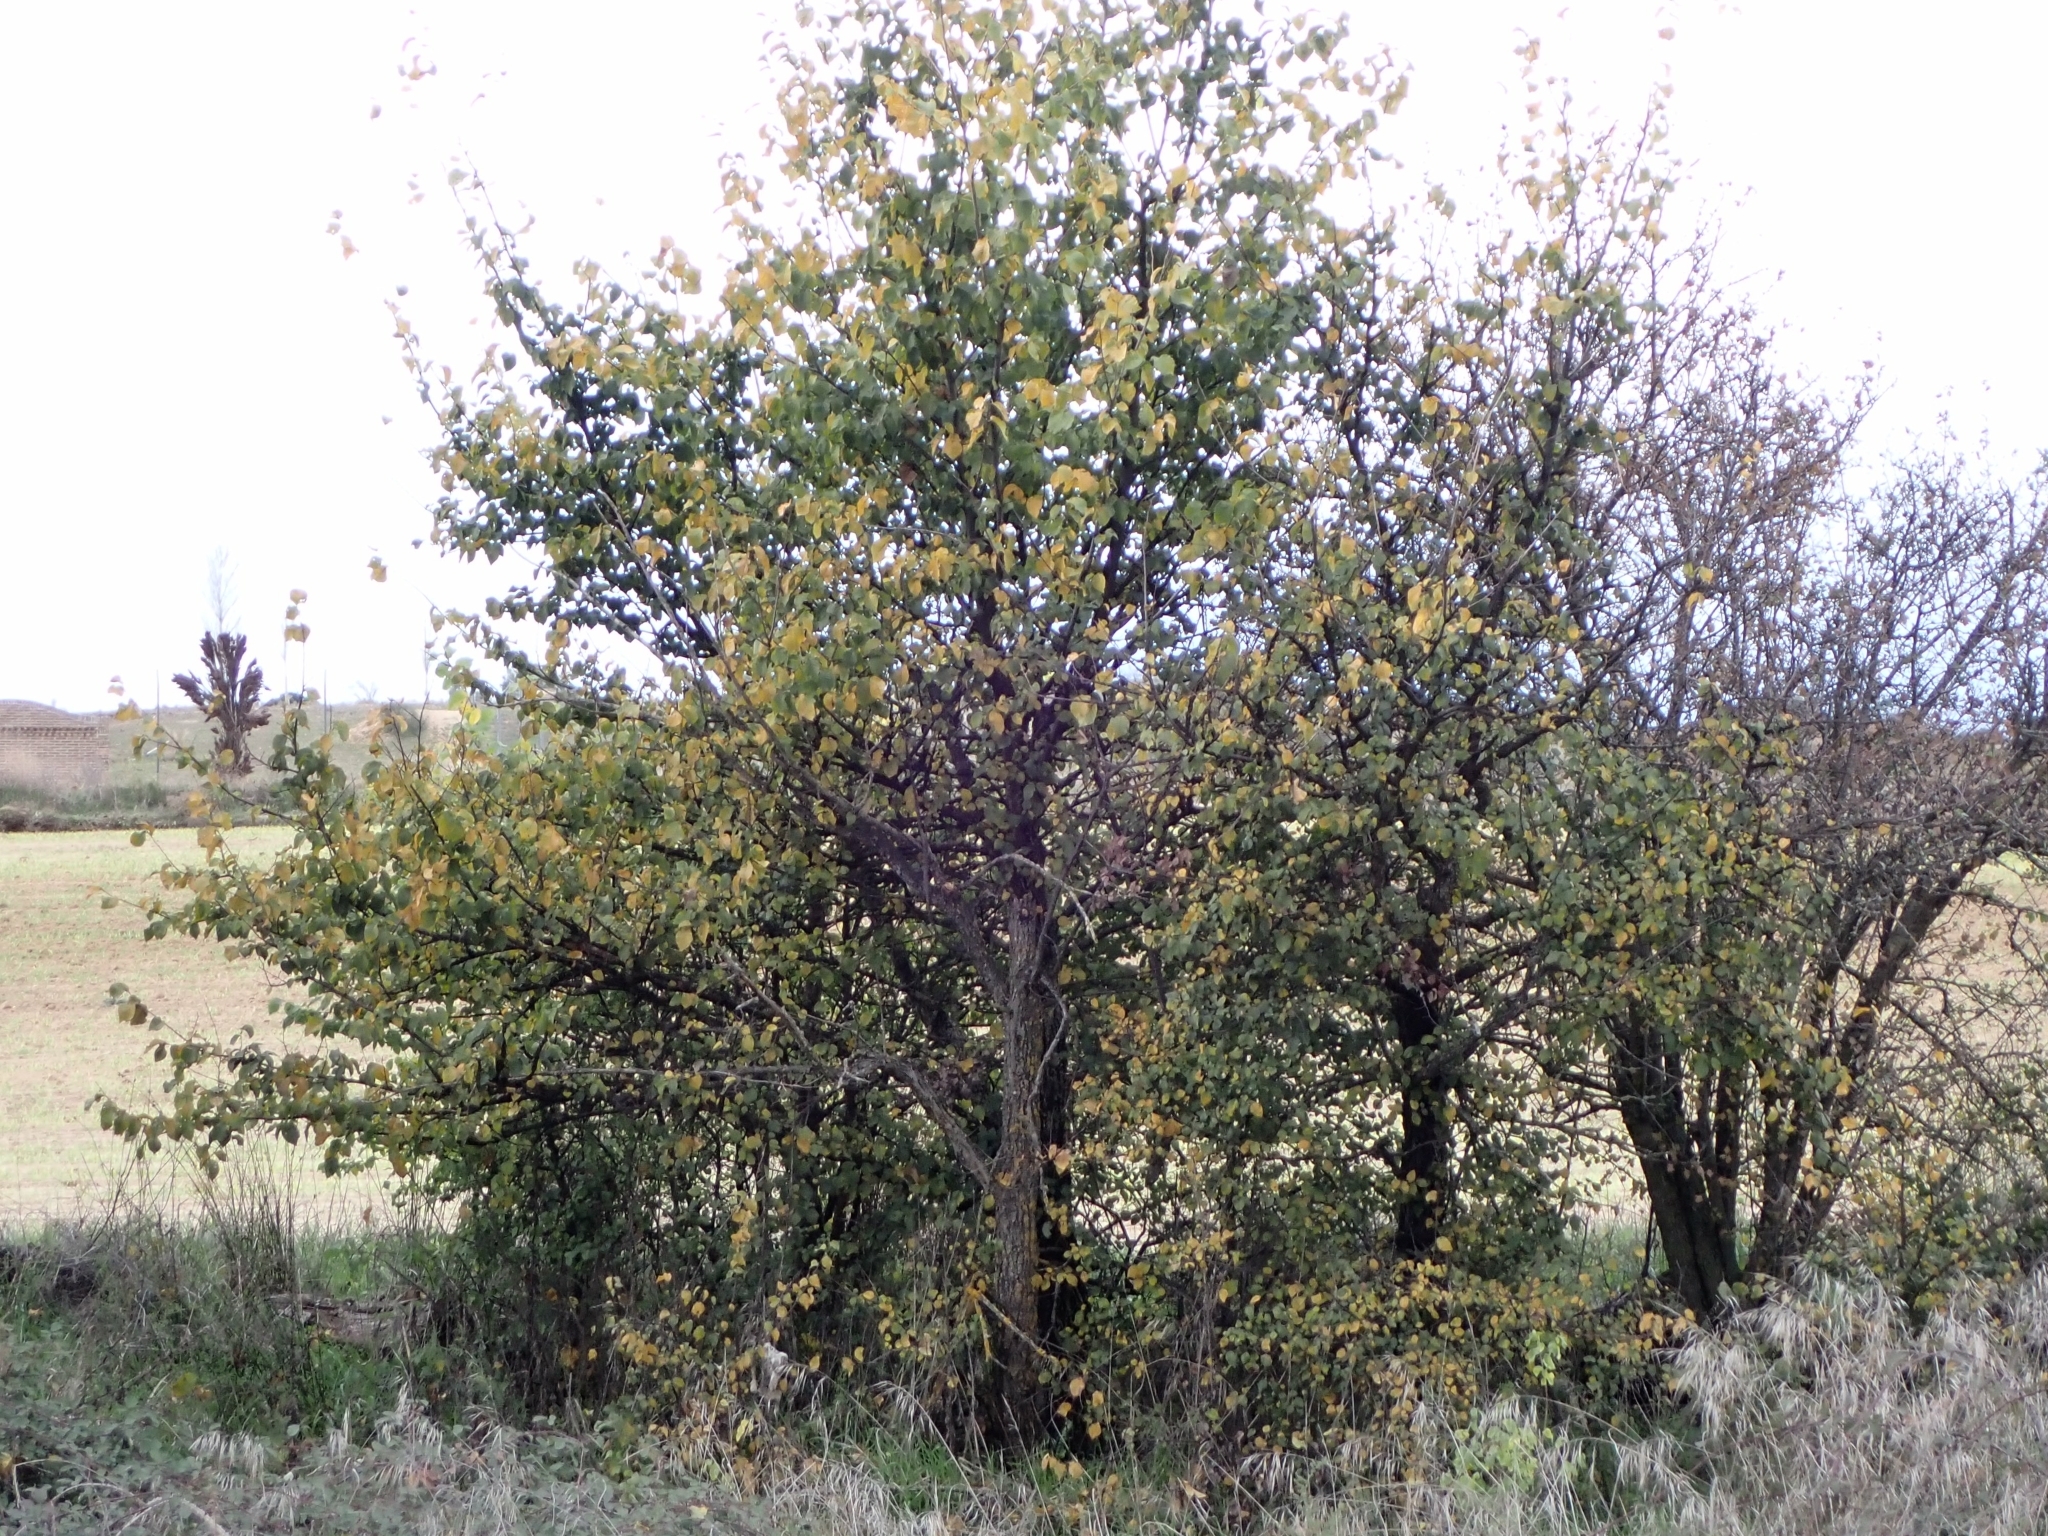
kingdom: Plantae
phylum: Tracheophyta
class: Magnoliopsida
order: Rosales
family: Ulmaceae
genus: Ulmus
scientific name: Ulmus minor
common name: Small-leaved elm
